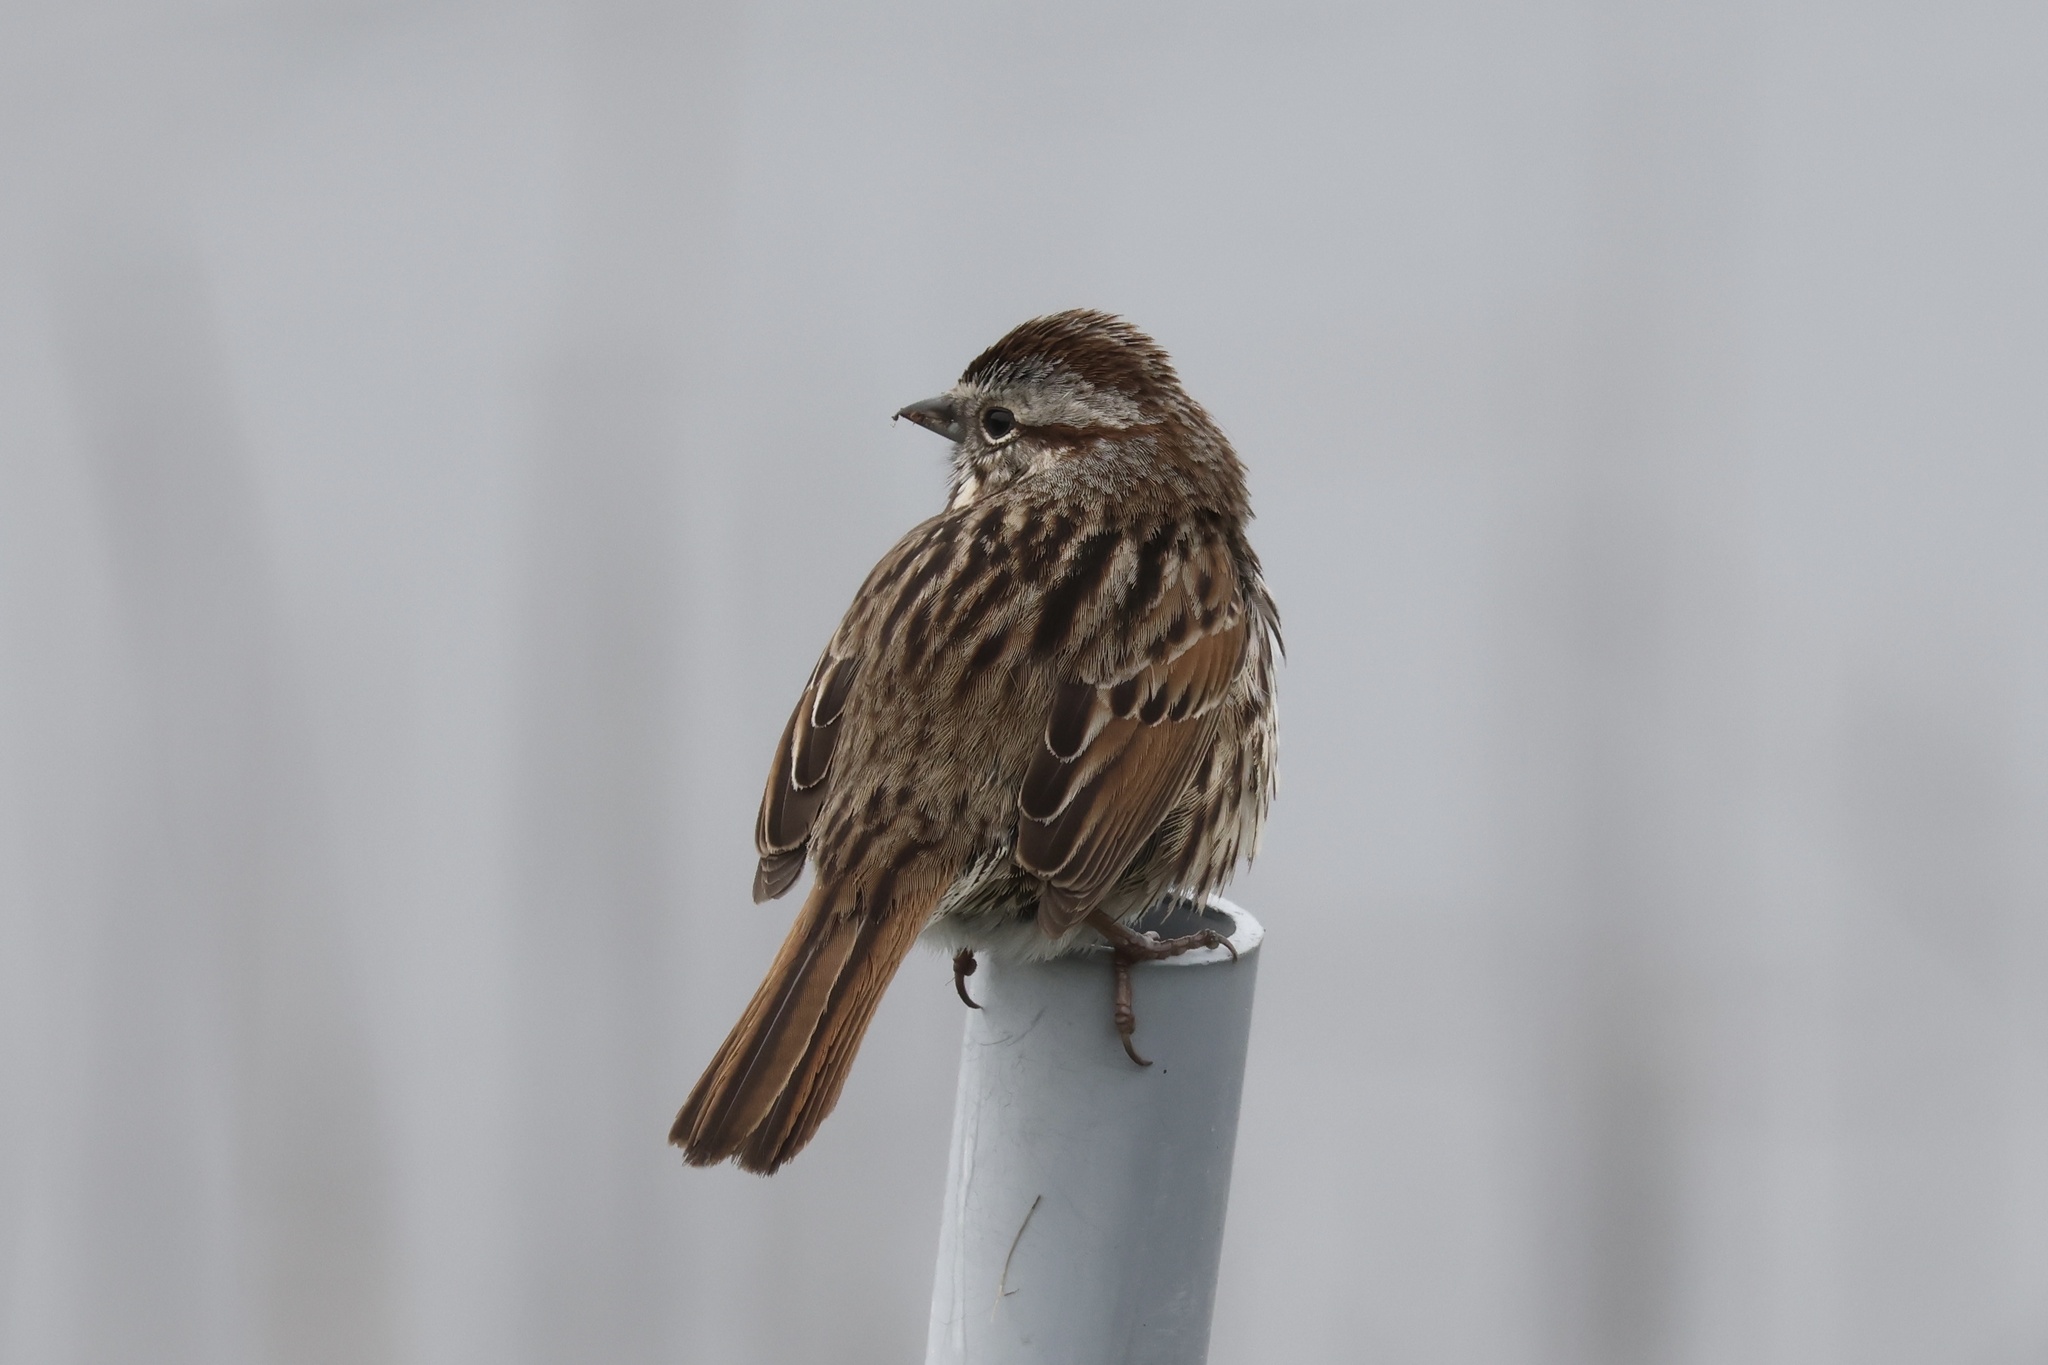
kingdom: Animalia
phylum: Chordata
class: Aves
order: Passeriformes
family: Passerellidae
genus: Melospiza
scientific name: Melospiza melodia
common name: Song sparrow
